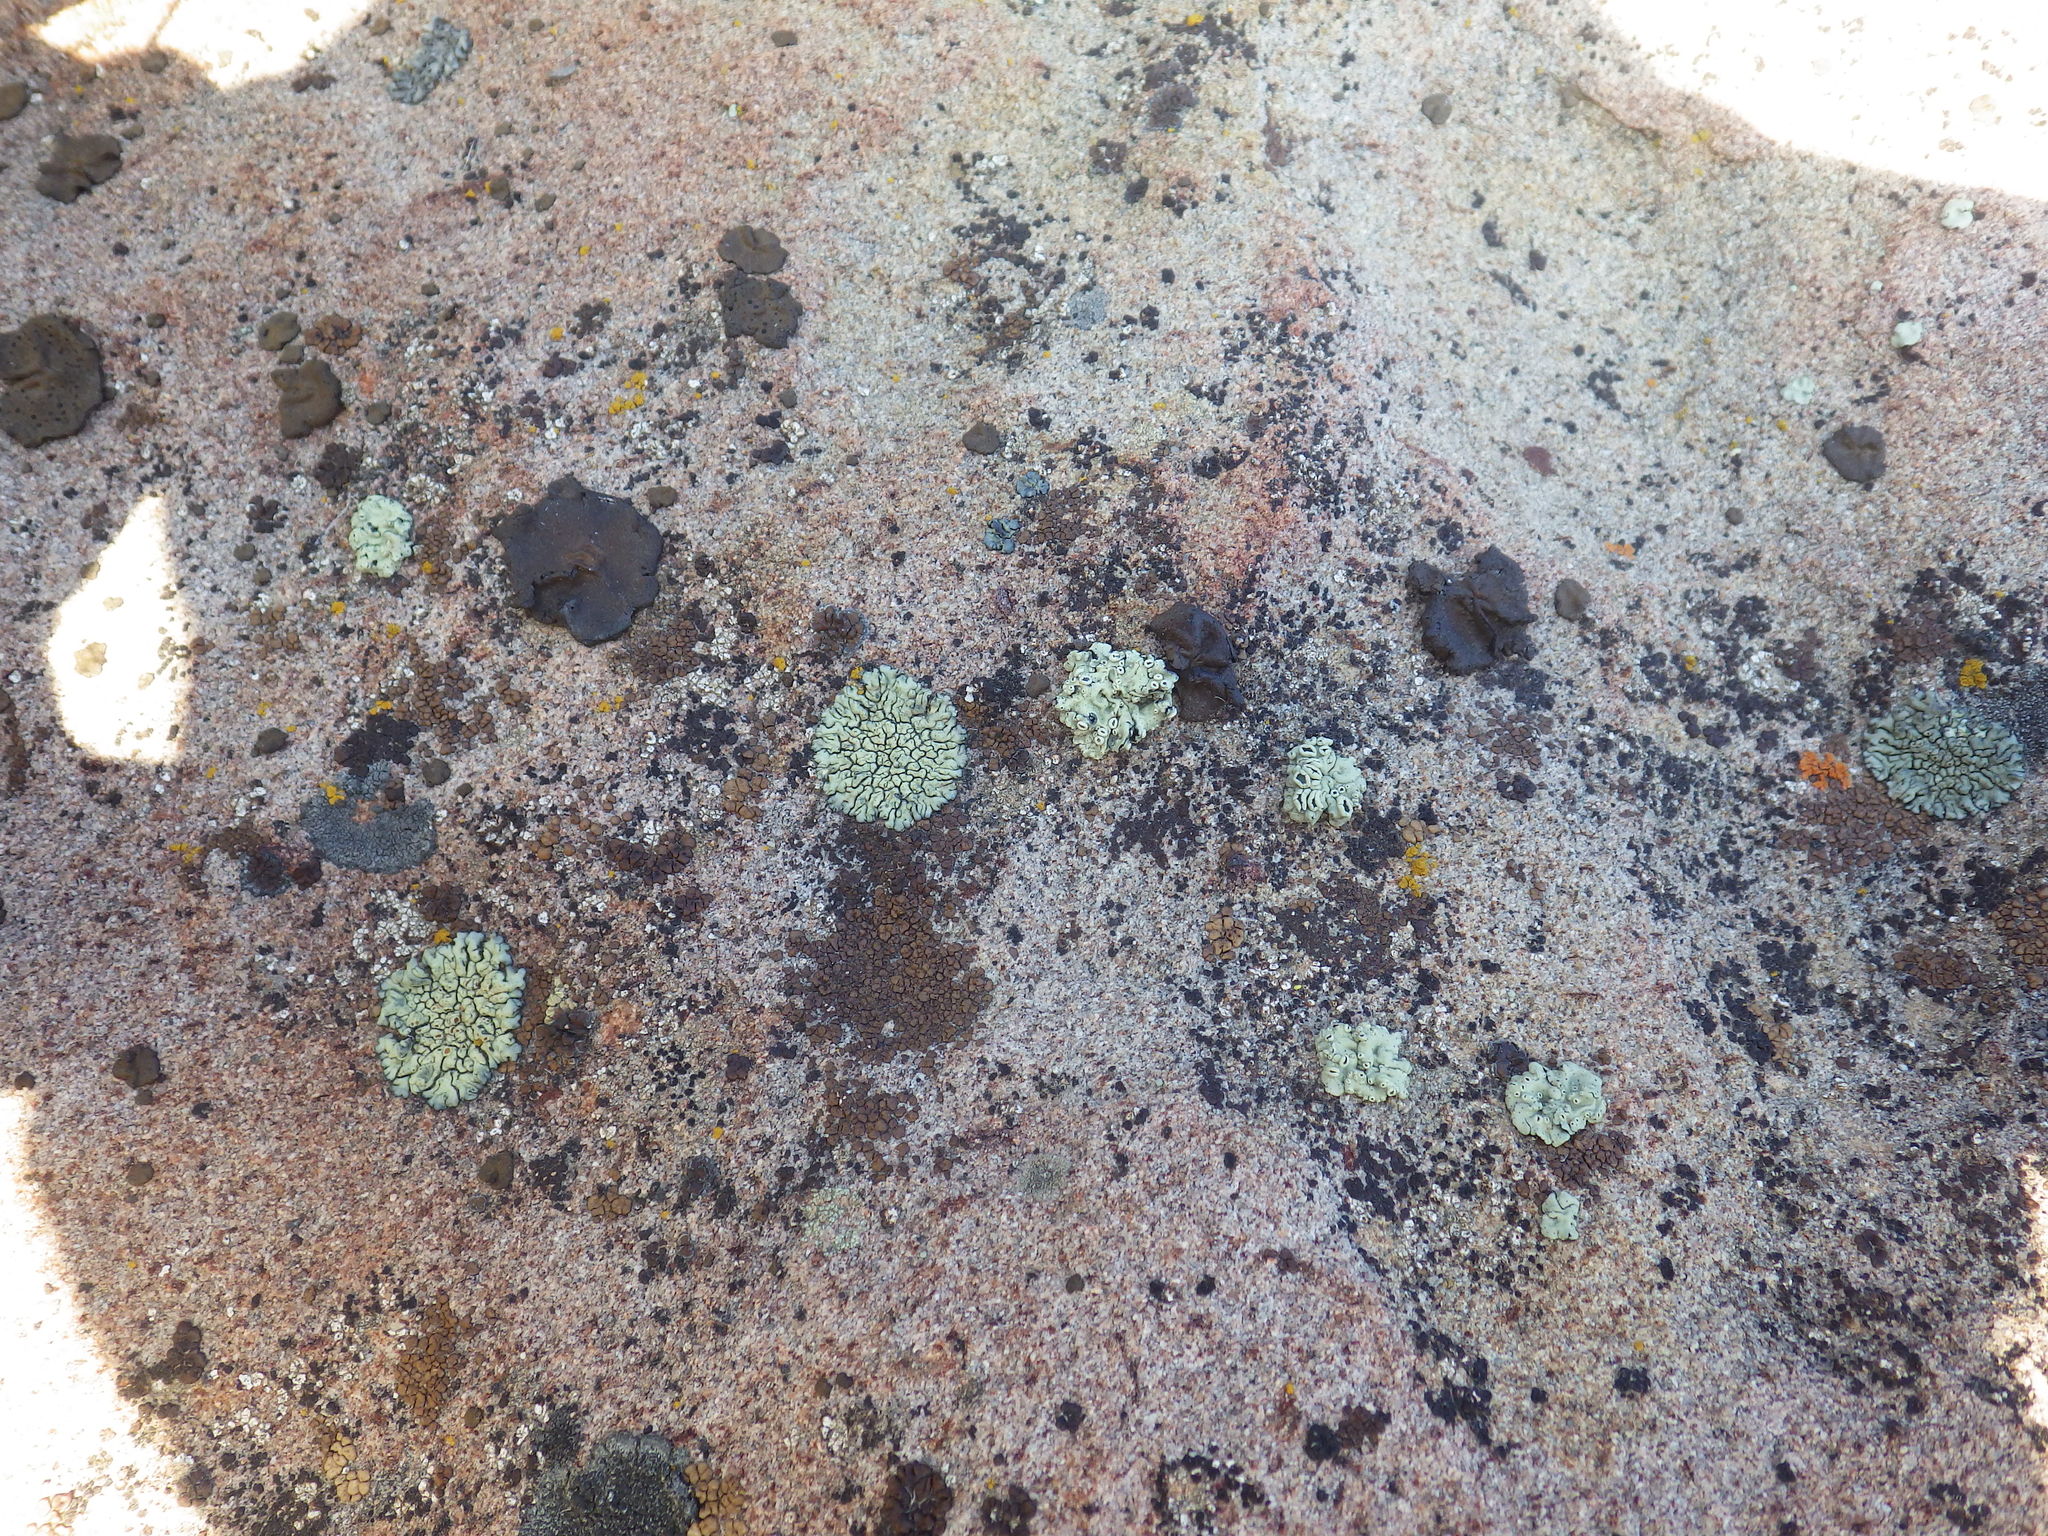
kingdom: Fungi
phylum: Ascomycota
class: Lecanoromycetes
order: Lecanorales
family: Lecanoraceae
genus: Rhizoplaca
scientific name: Rhizoplaca melanophthalma
